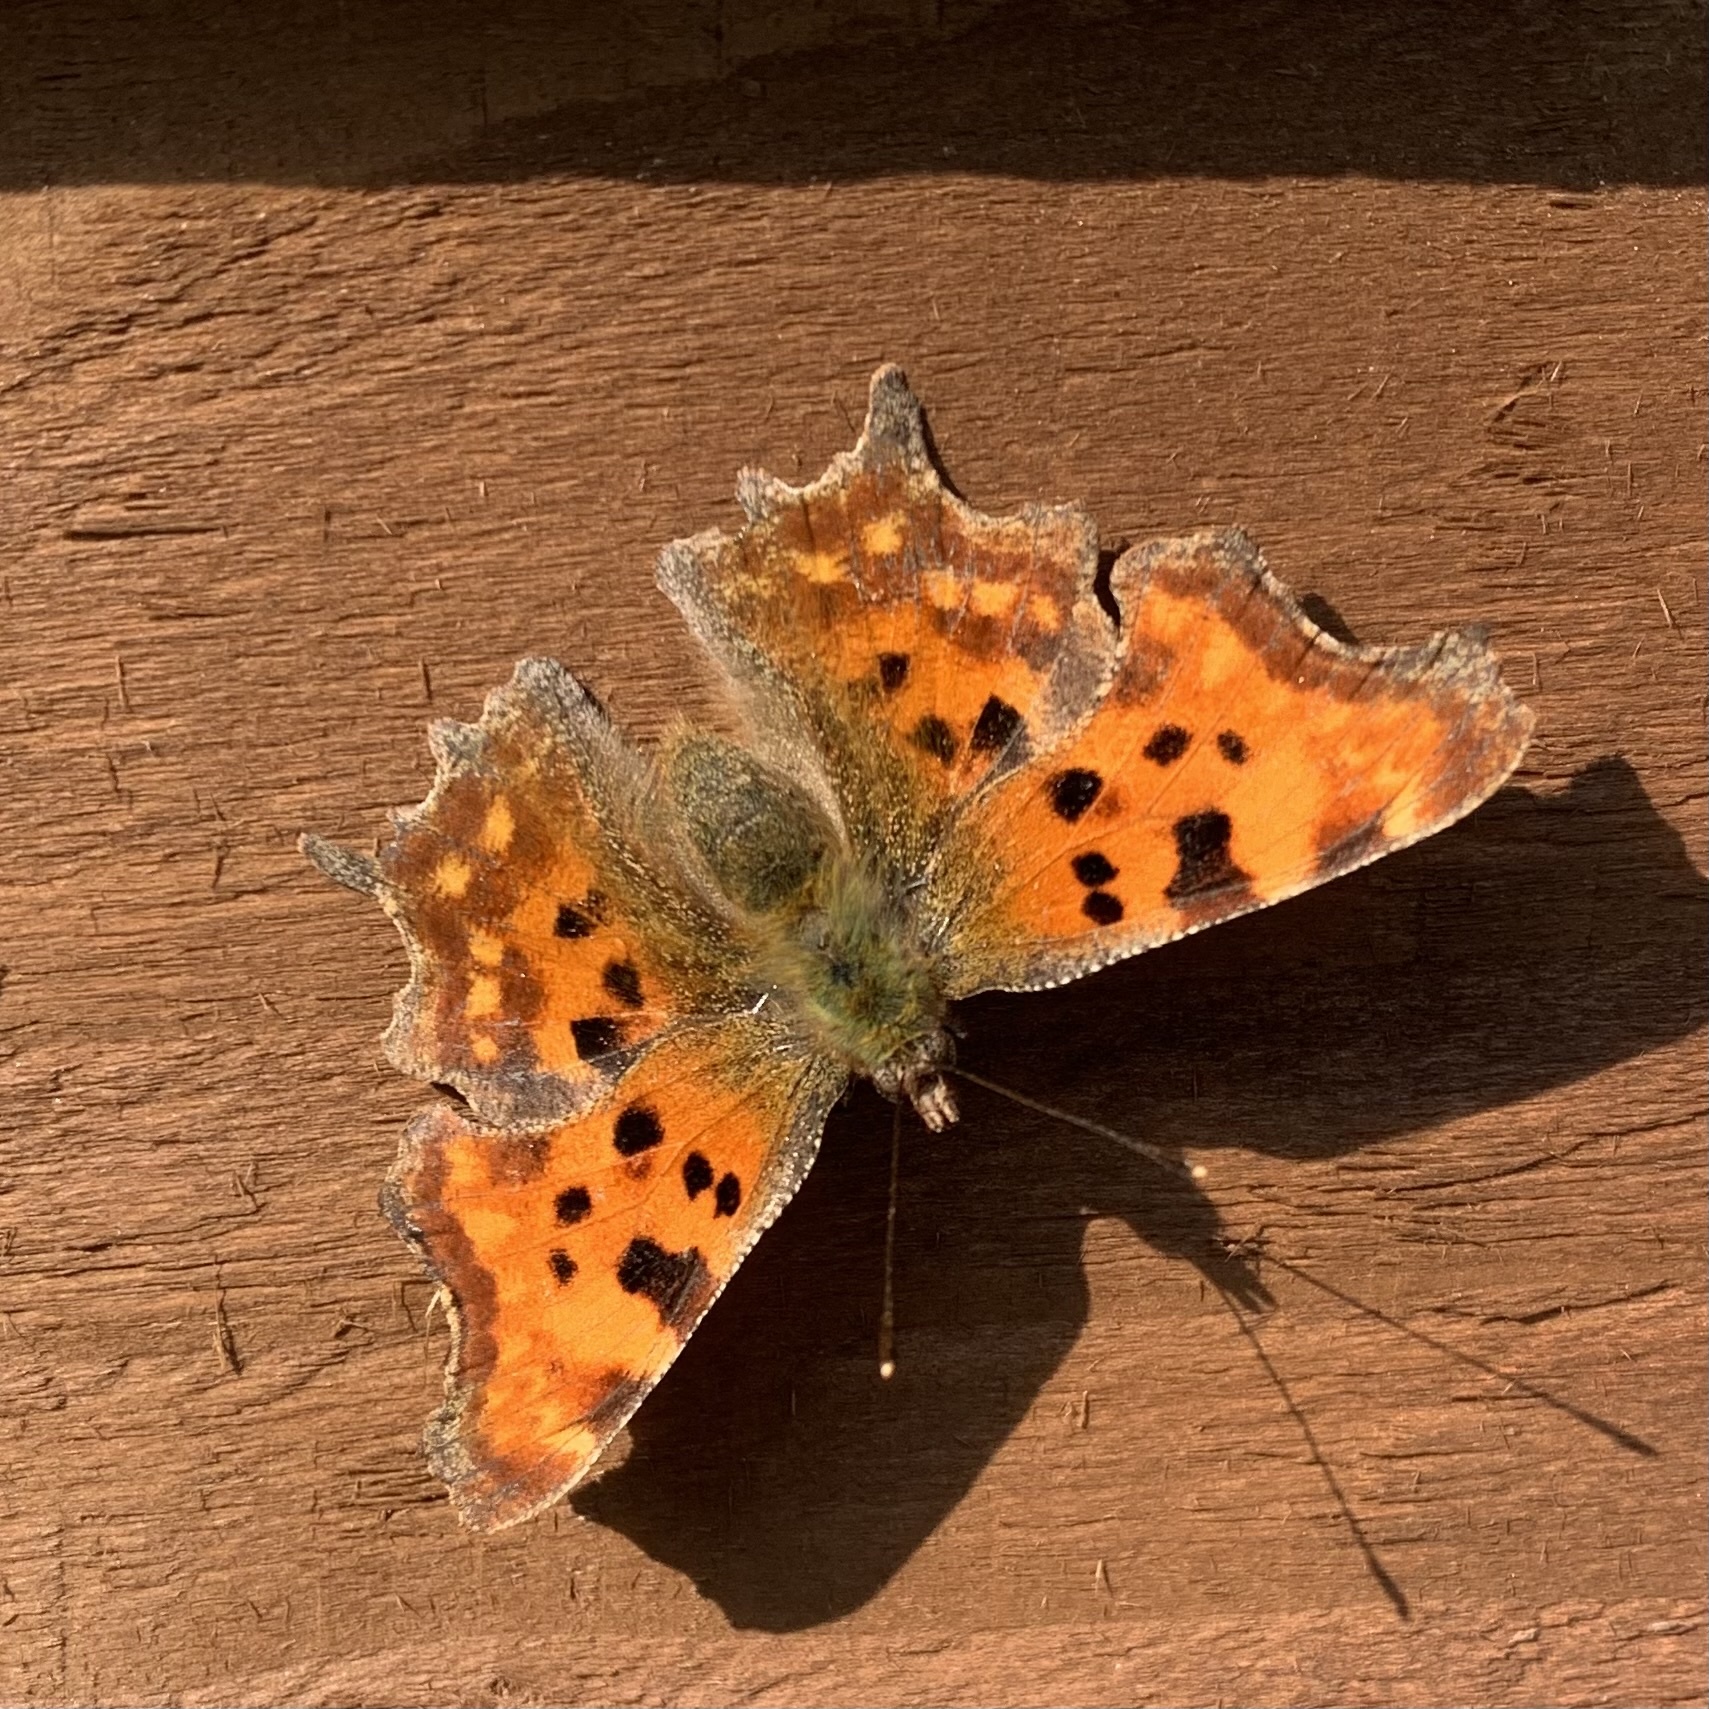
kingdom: Animalia
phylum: Arthropoda
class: Insecta
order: Lepidoptera
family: Nymphalidae
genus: Polygonia
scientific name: Polygonia c-album
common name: Comma
